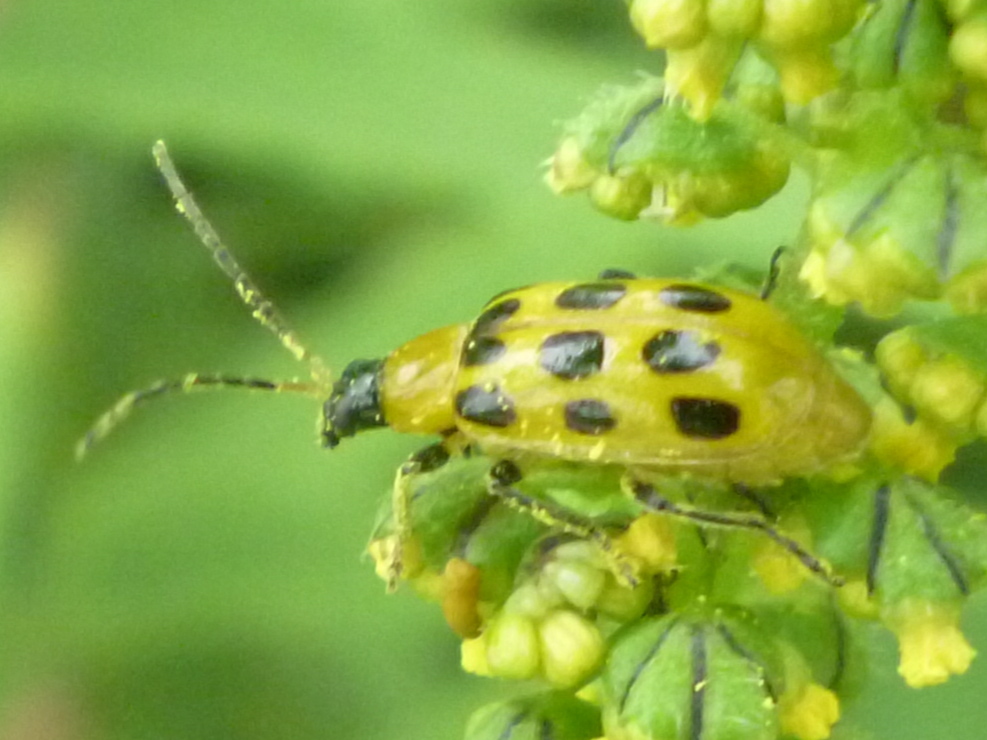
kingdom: Animalia
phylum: Arthropoda
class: Insecta
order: Coleoptera
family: Chrysomelidae
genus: Diabrotica
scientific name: Diabrotica undecimpunctata
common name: Spotted cucumber beetle
